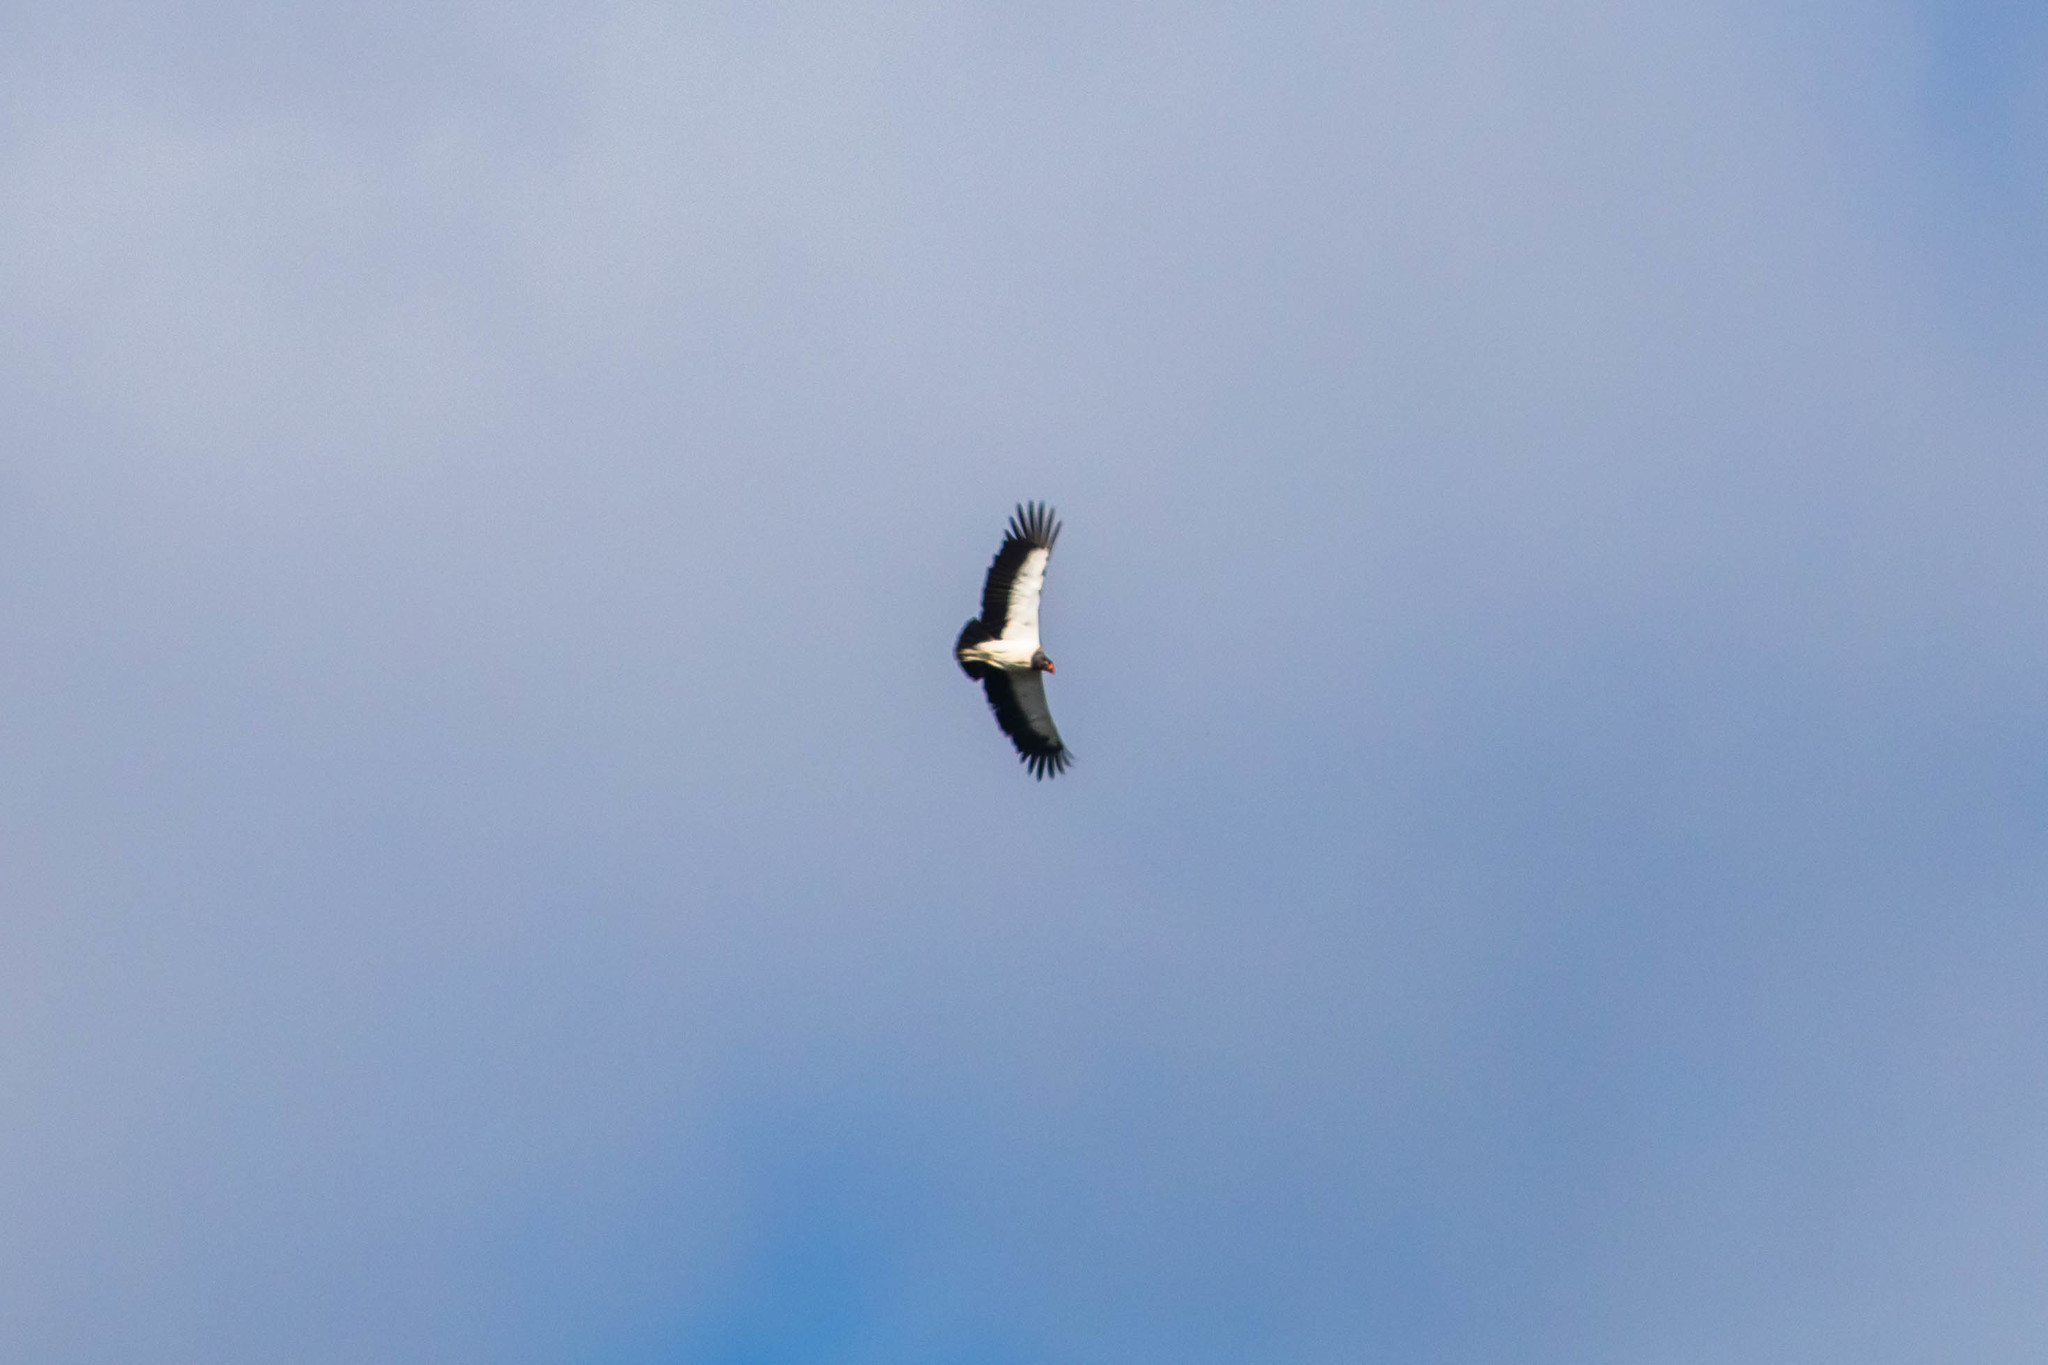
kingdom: Animalia
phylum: Chordata
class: Aves
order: Accipitriformes
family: Cathartidae
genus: Sarcoramphus
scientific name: Sarcoramphus papa
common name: King vulture
